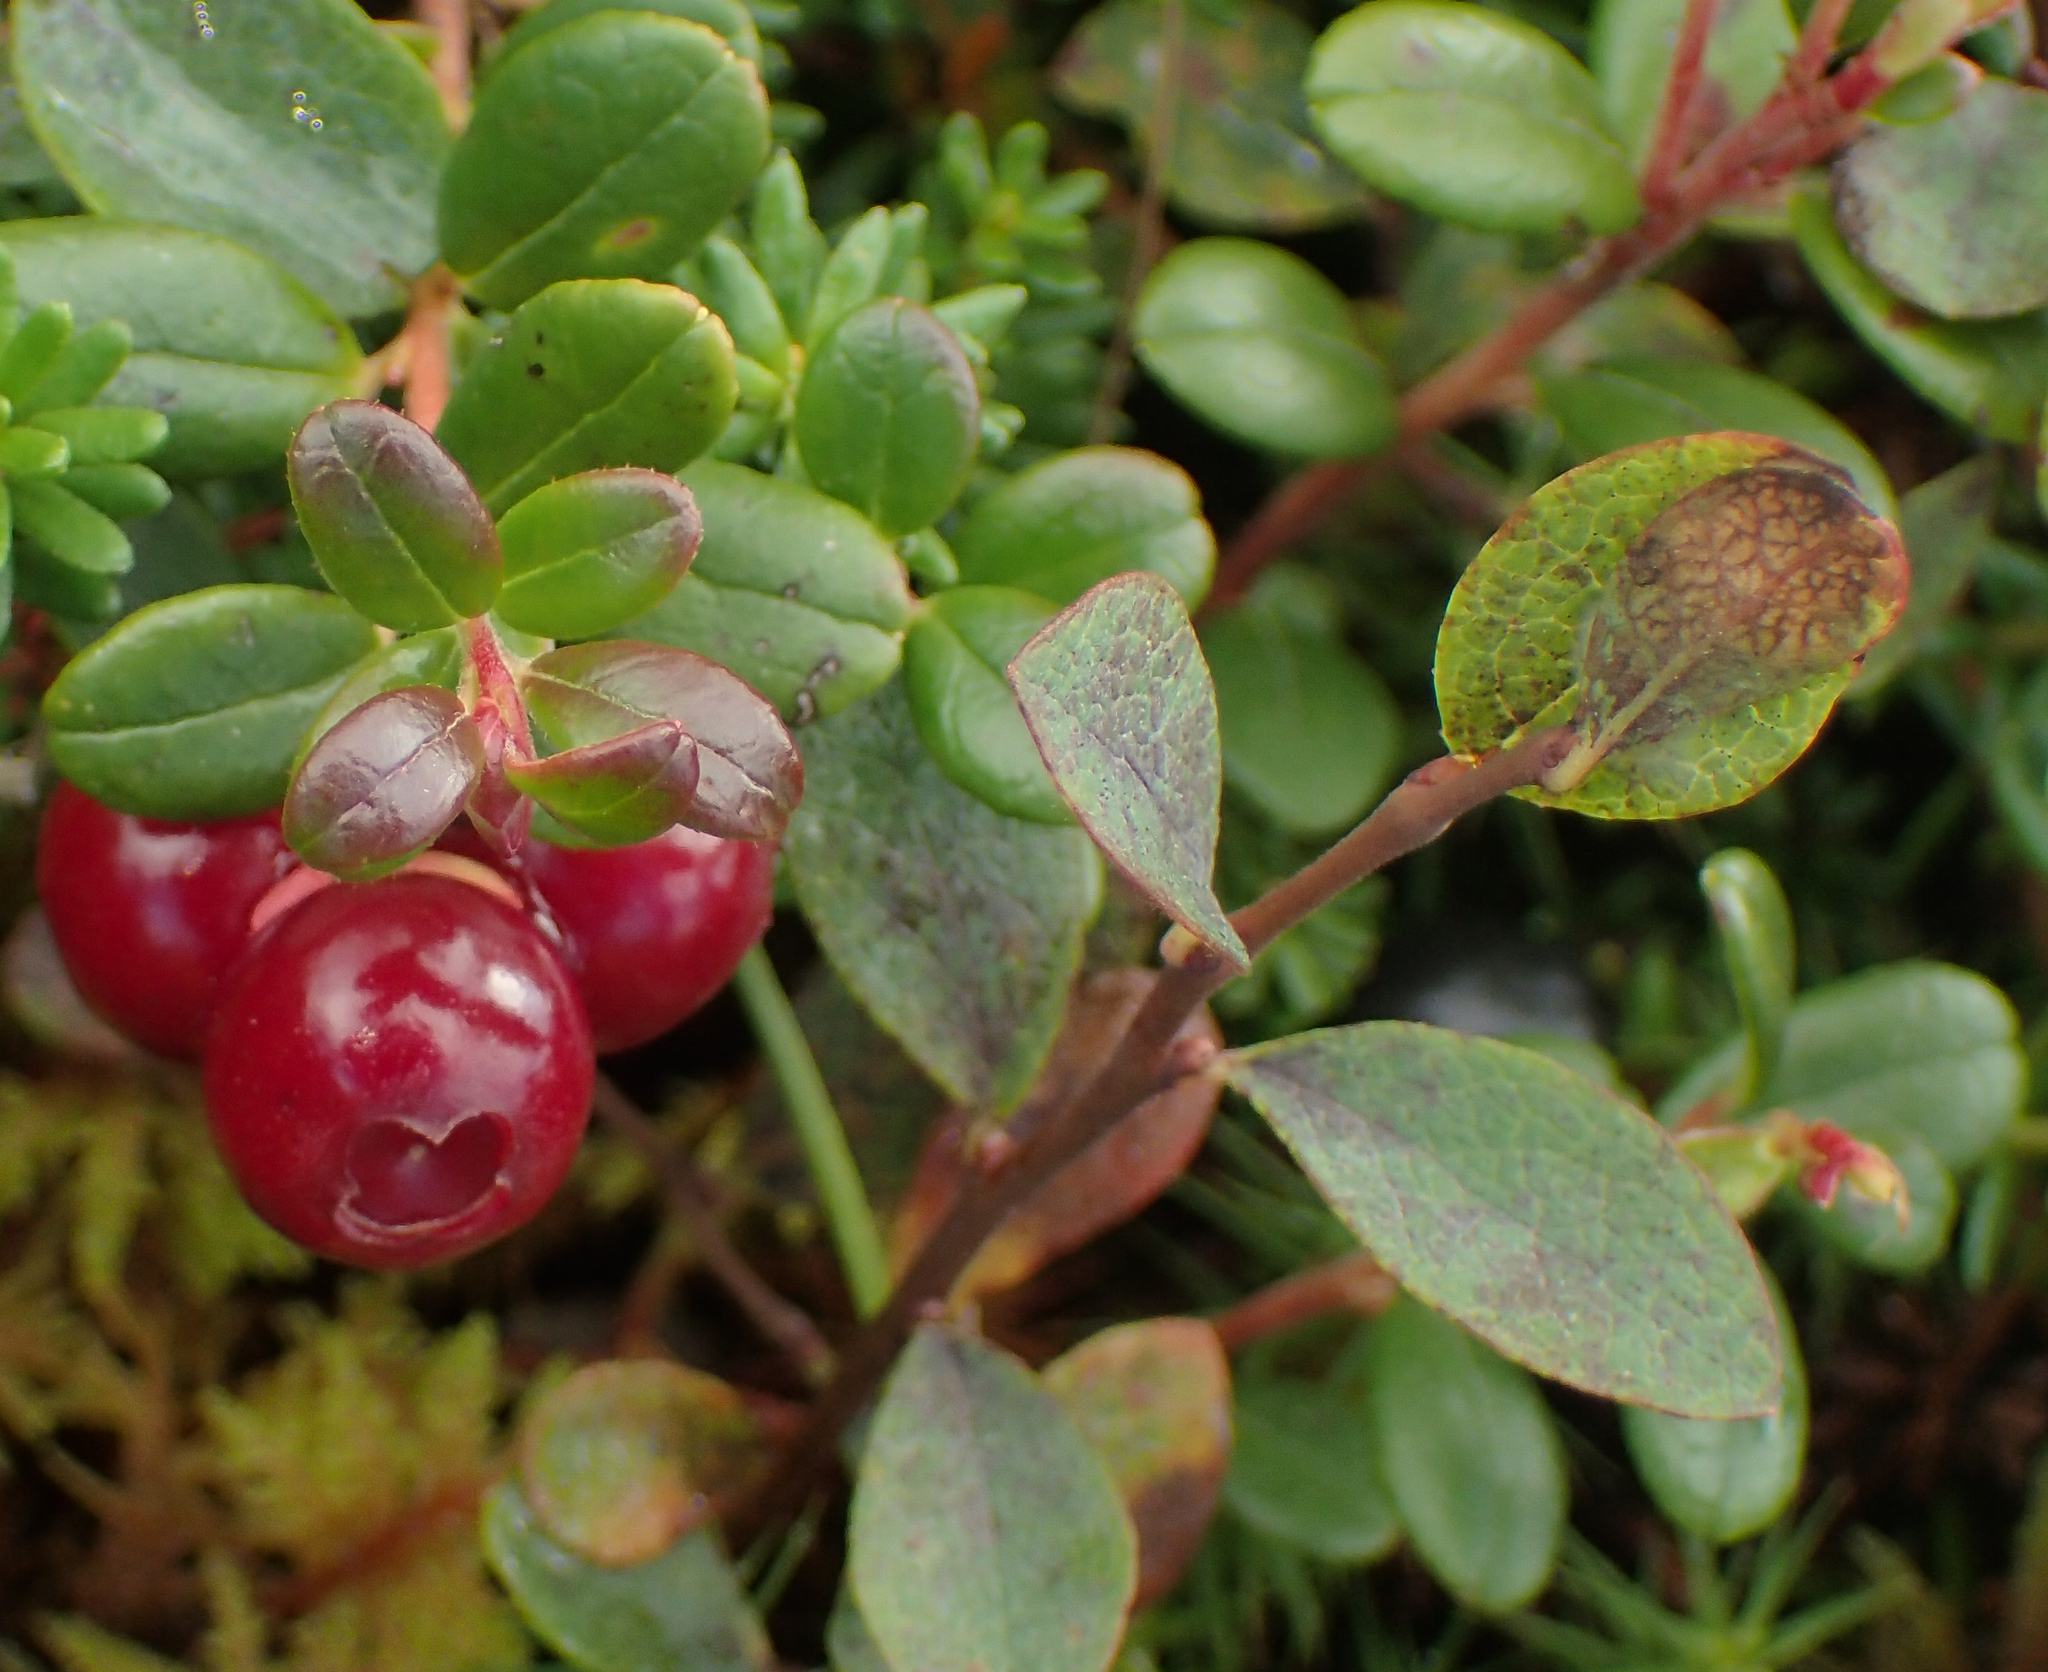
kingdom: Plantae
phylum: Tracheophyta
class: Magnoliopsida
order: Ericales
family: Ericaceae
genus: Vaccinium
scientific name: Vaccinium vitis-idaea
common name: Cowberry
